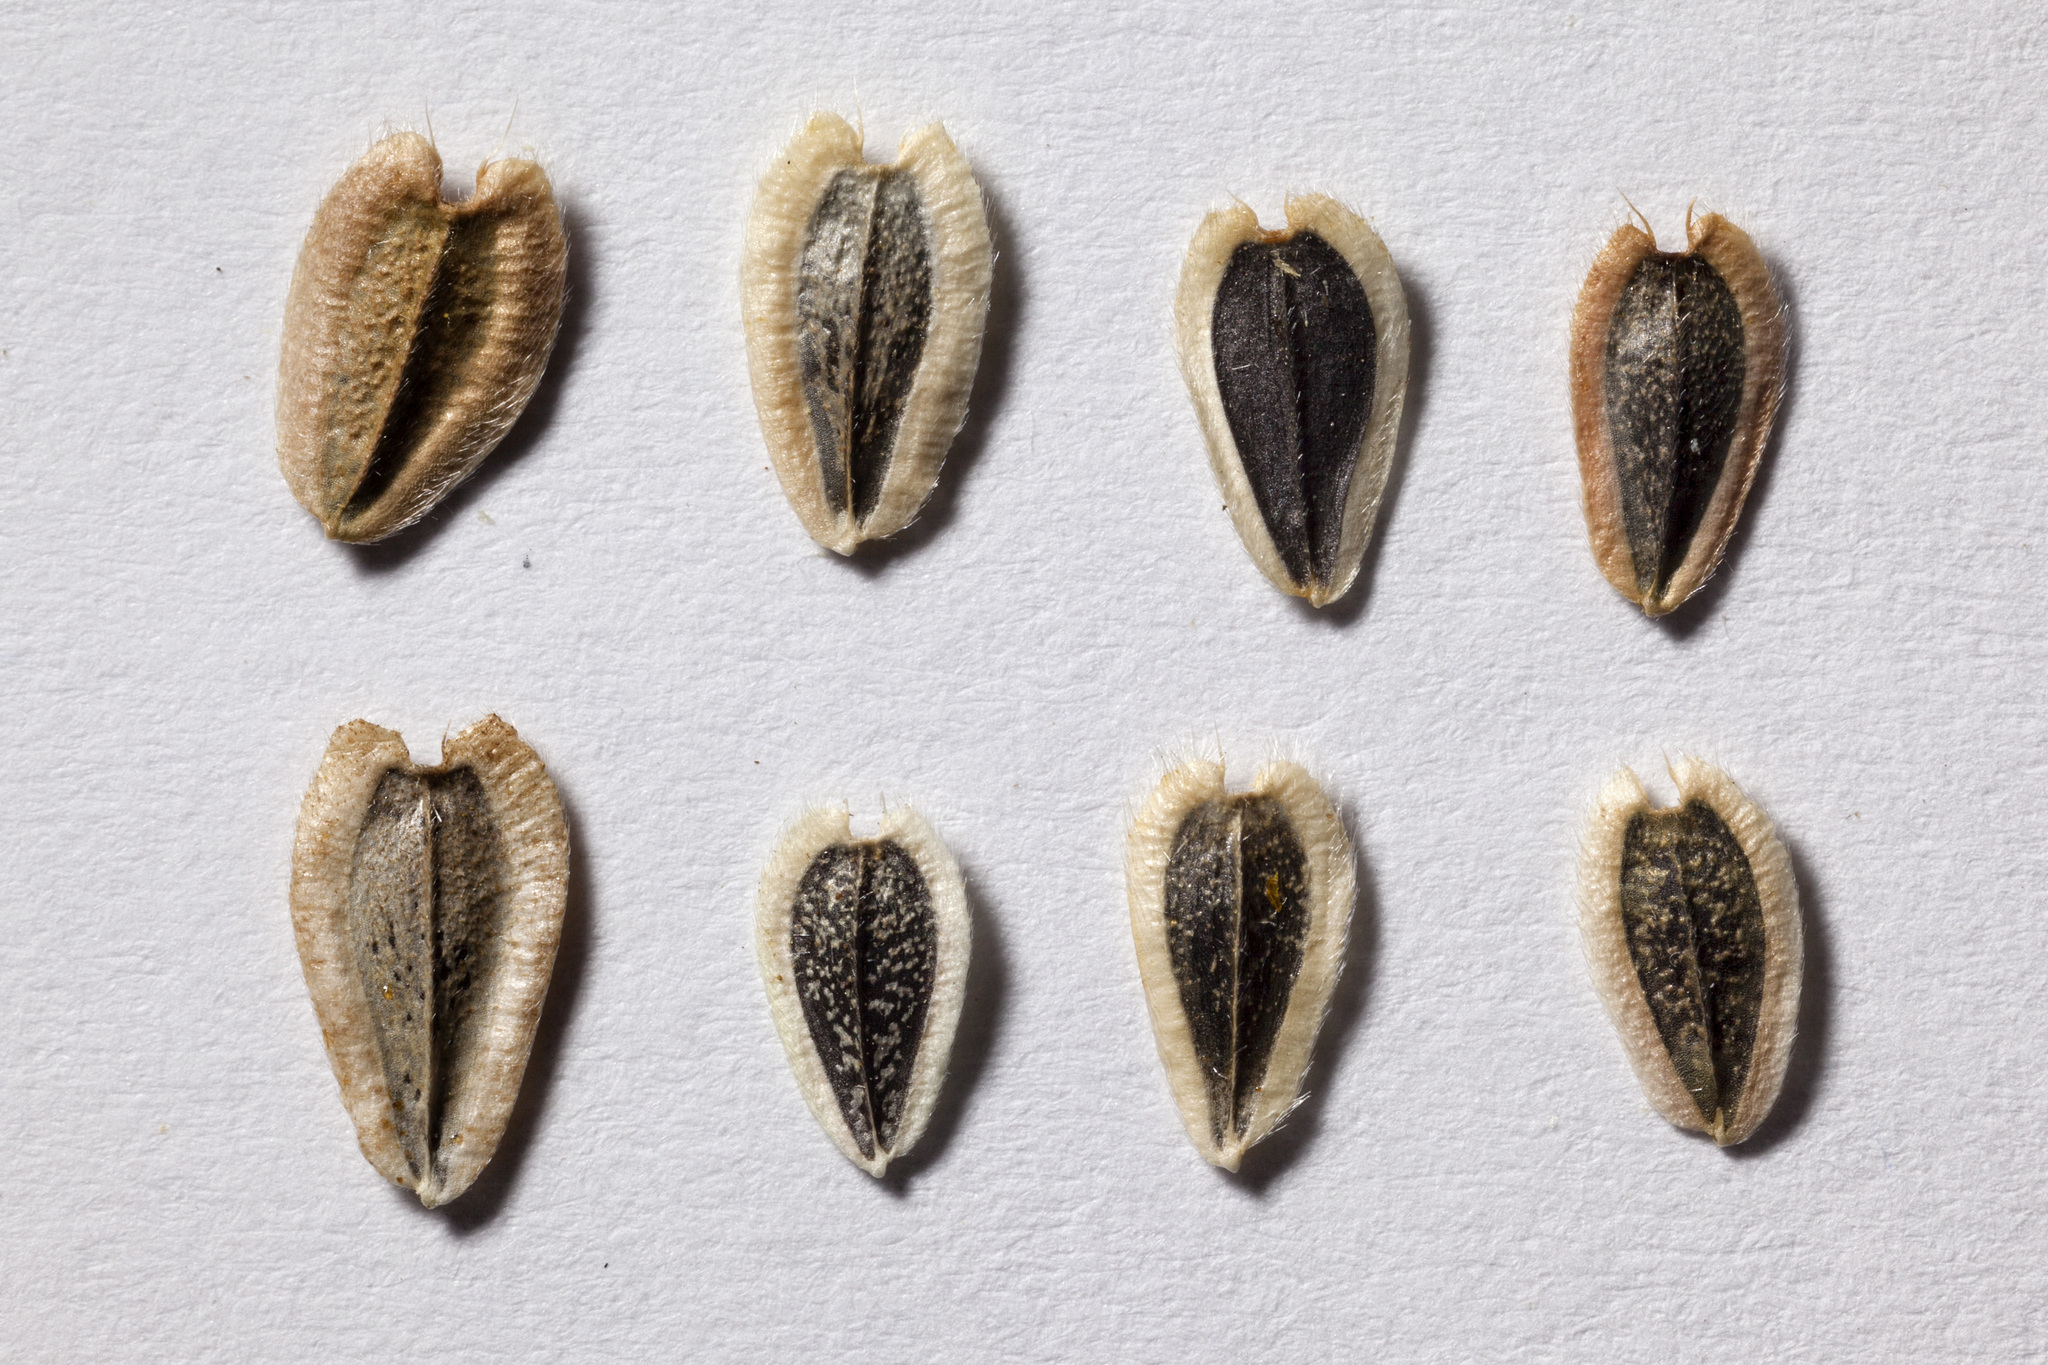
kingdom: Plantae
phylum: Tracheophyta
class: Magnoliopsida
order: Asterales
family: Asteraceae
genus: Verbesina
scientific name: Verbesina encelioides
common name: Golden crownbeard
